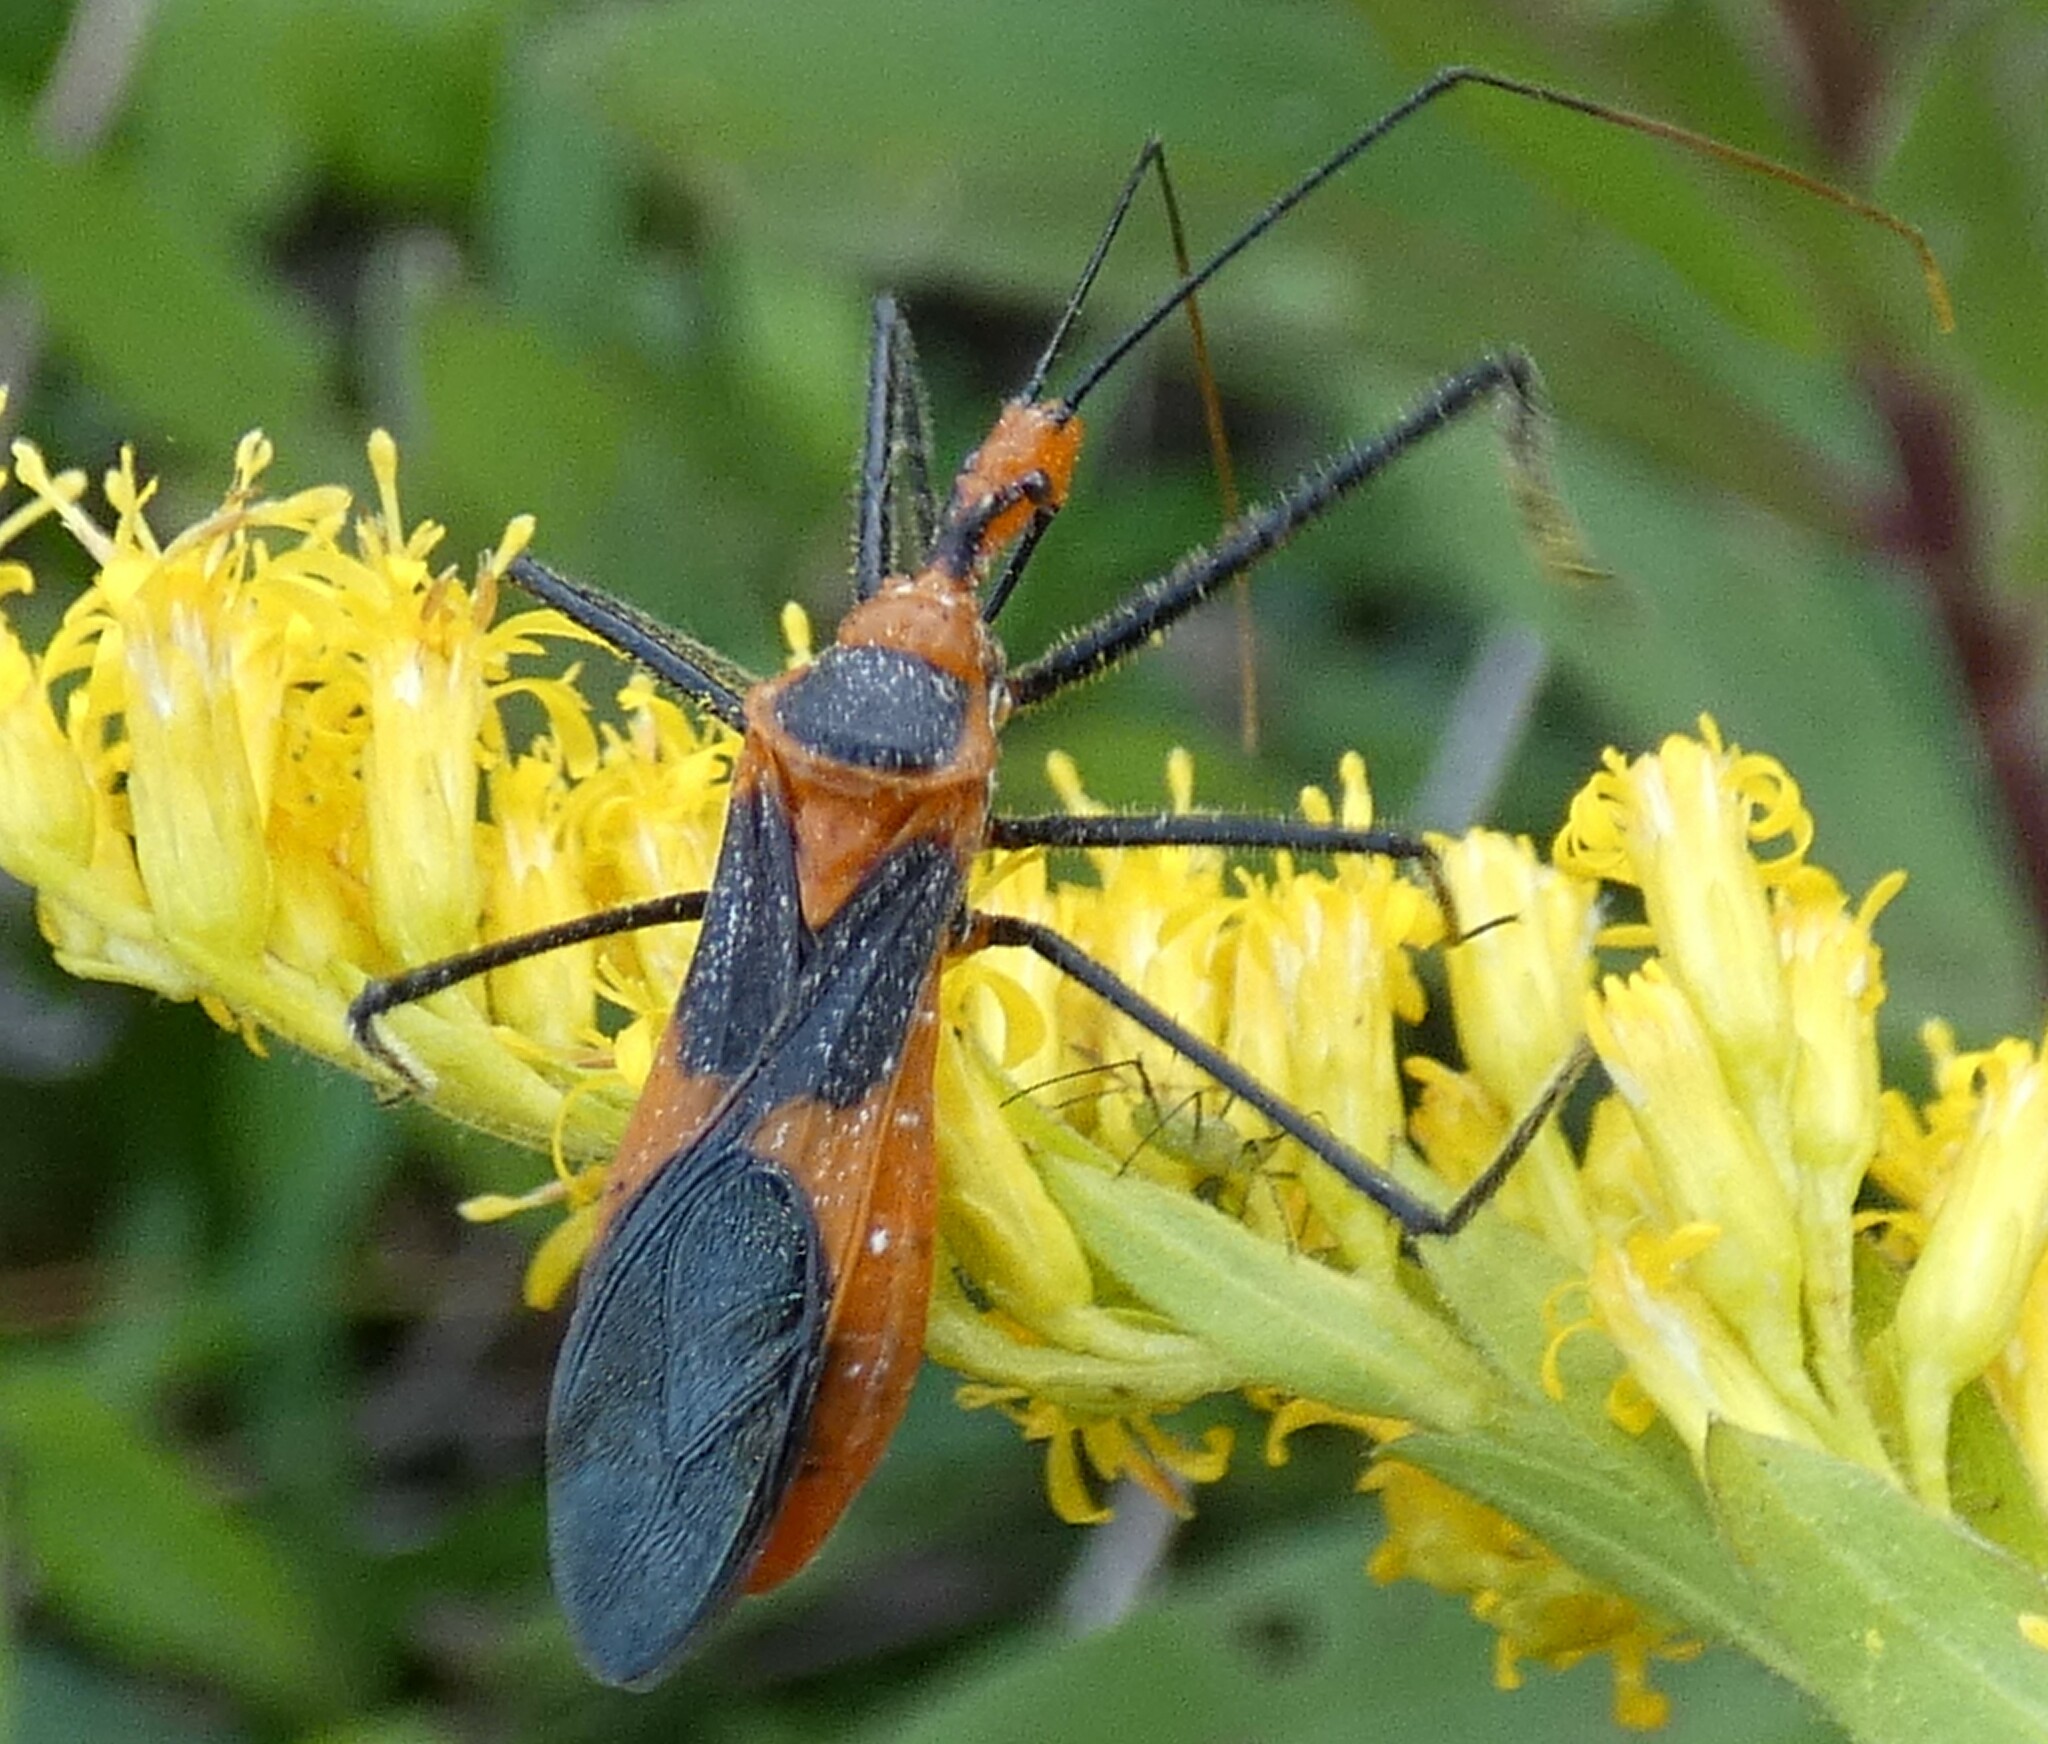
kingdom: Animalia
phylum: Arthropoda
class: Insecta
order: Hemiptera
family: Reduviidae
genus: Zelus
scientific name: Zelus longipes
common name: Milkweed assassin bug
